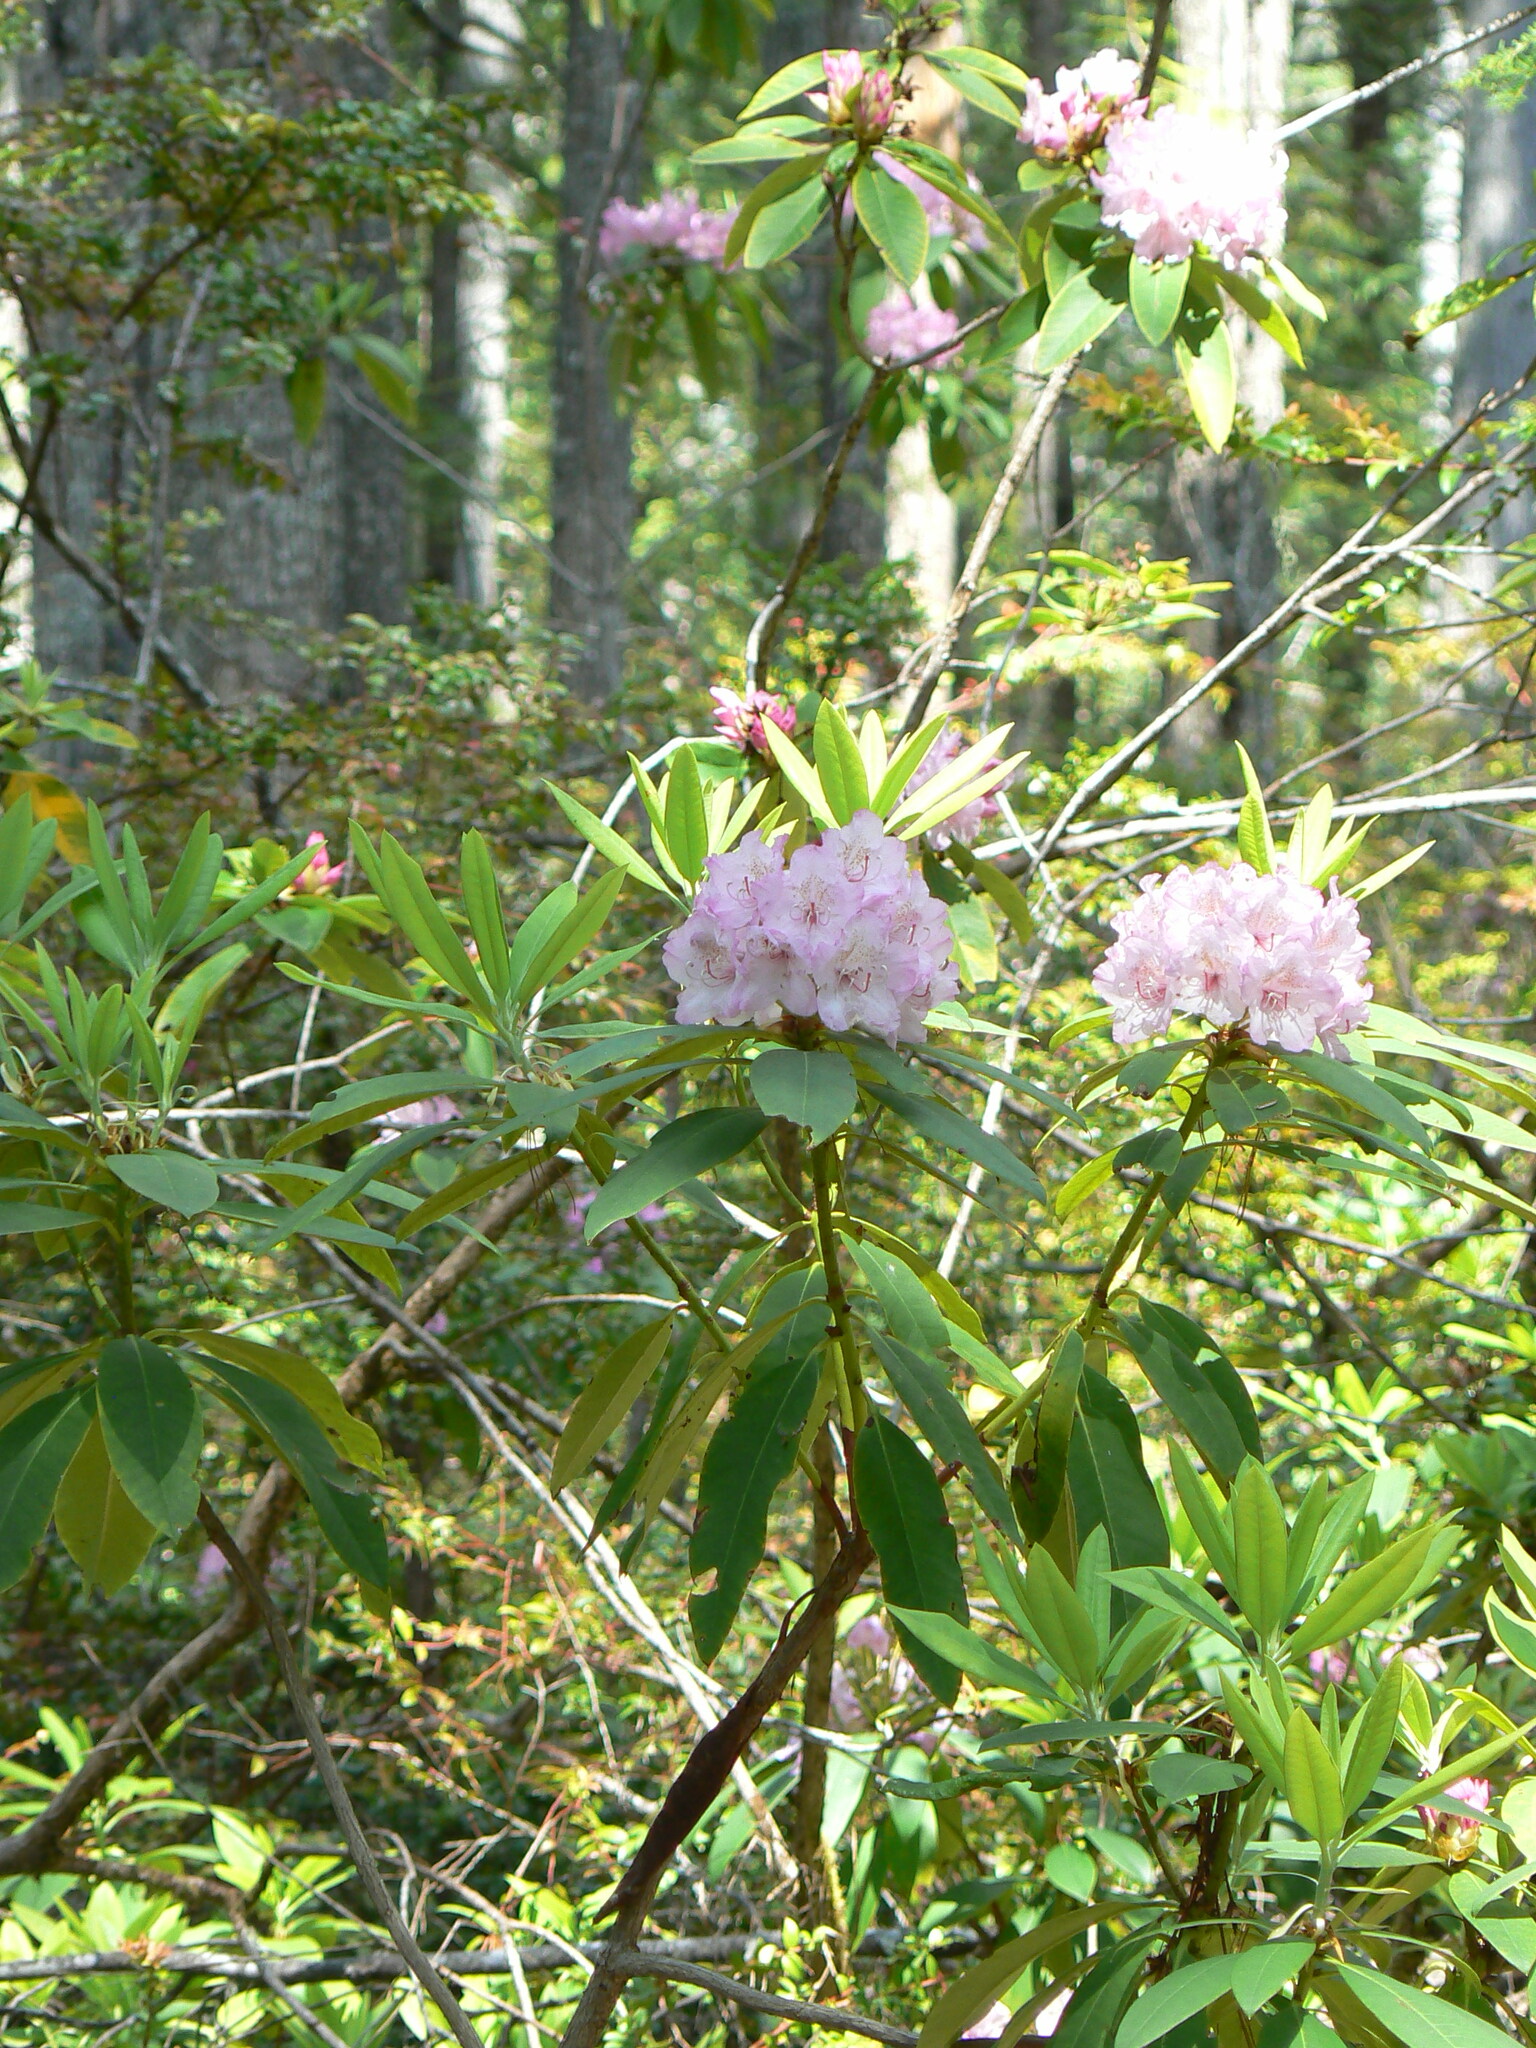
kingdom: Plantae
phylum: Tracheophyta
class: Magnoliopsida
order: Ericales
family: Ericaceae
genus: Rhododendron
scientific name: Rhododendron macrophyllum
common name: California rose bay
